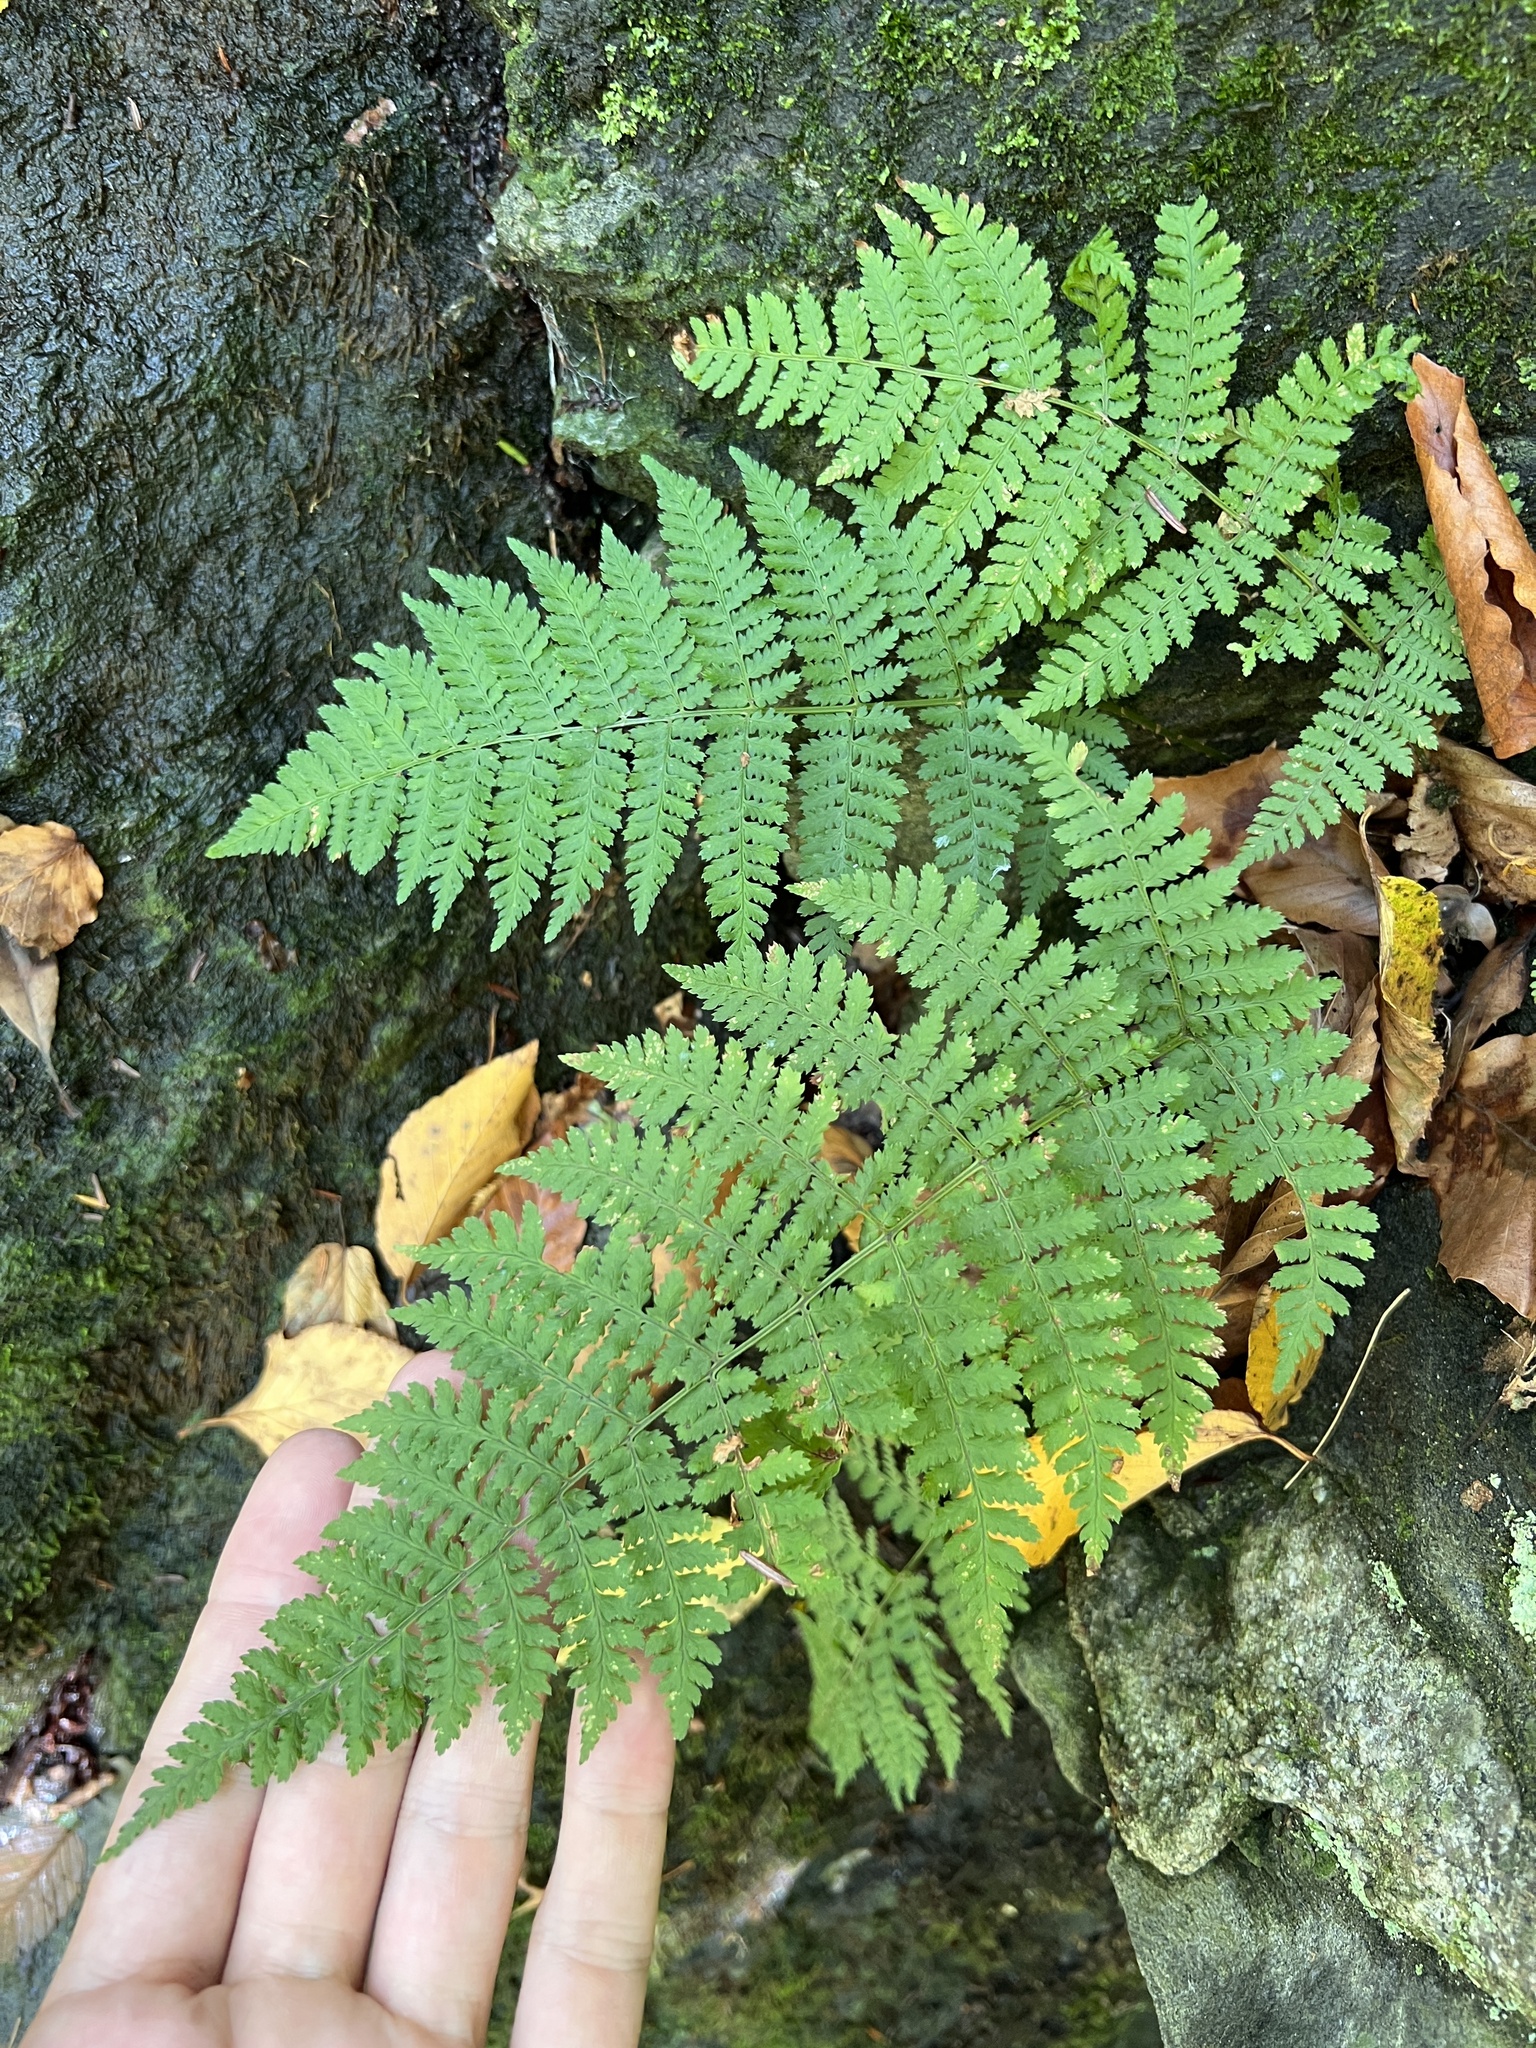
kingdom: Plantae
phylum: Tracheophyta
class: Polypodiopsida
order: Polypodiales
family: Dryopteridaceae
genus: Dryopteris
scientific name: Dryopteris intermedia
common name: Evergreen wood fern
